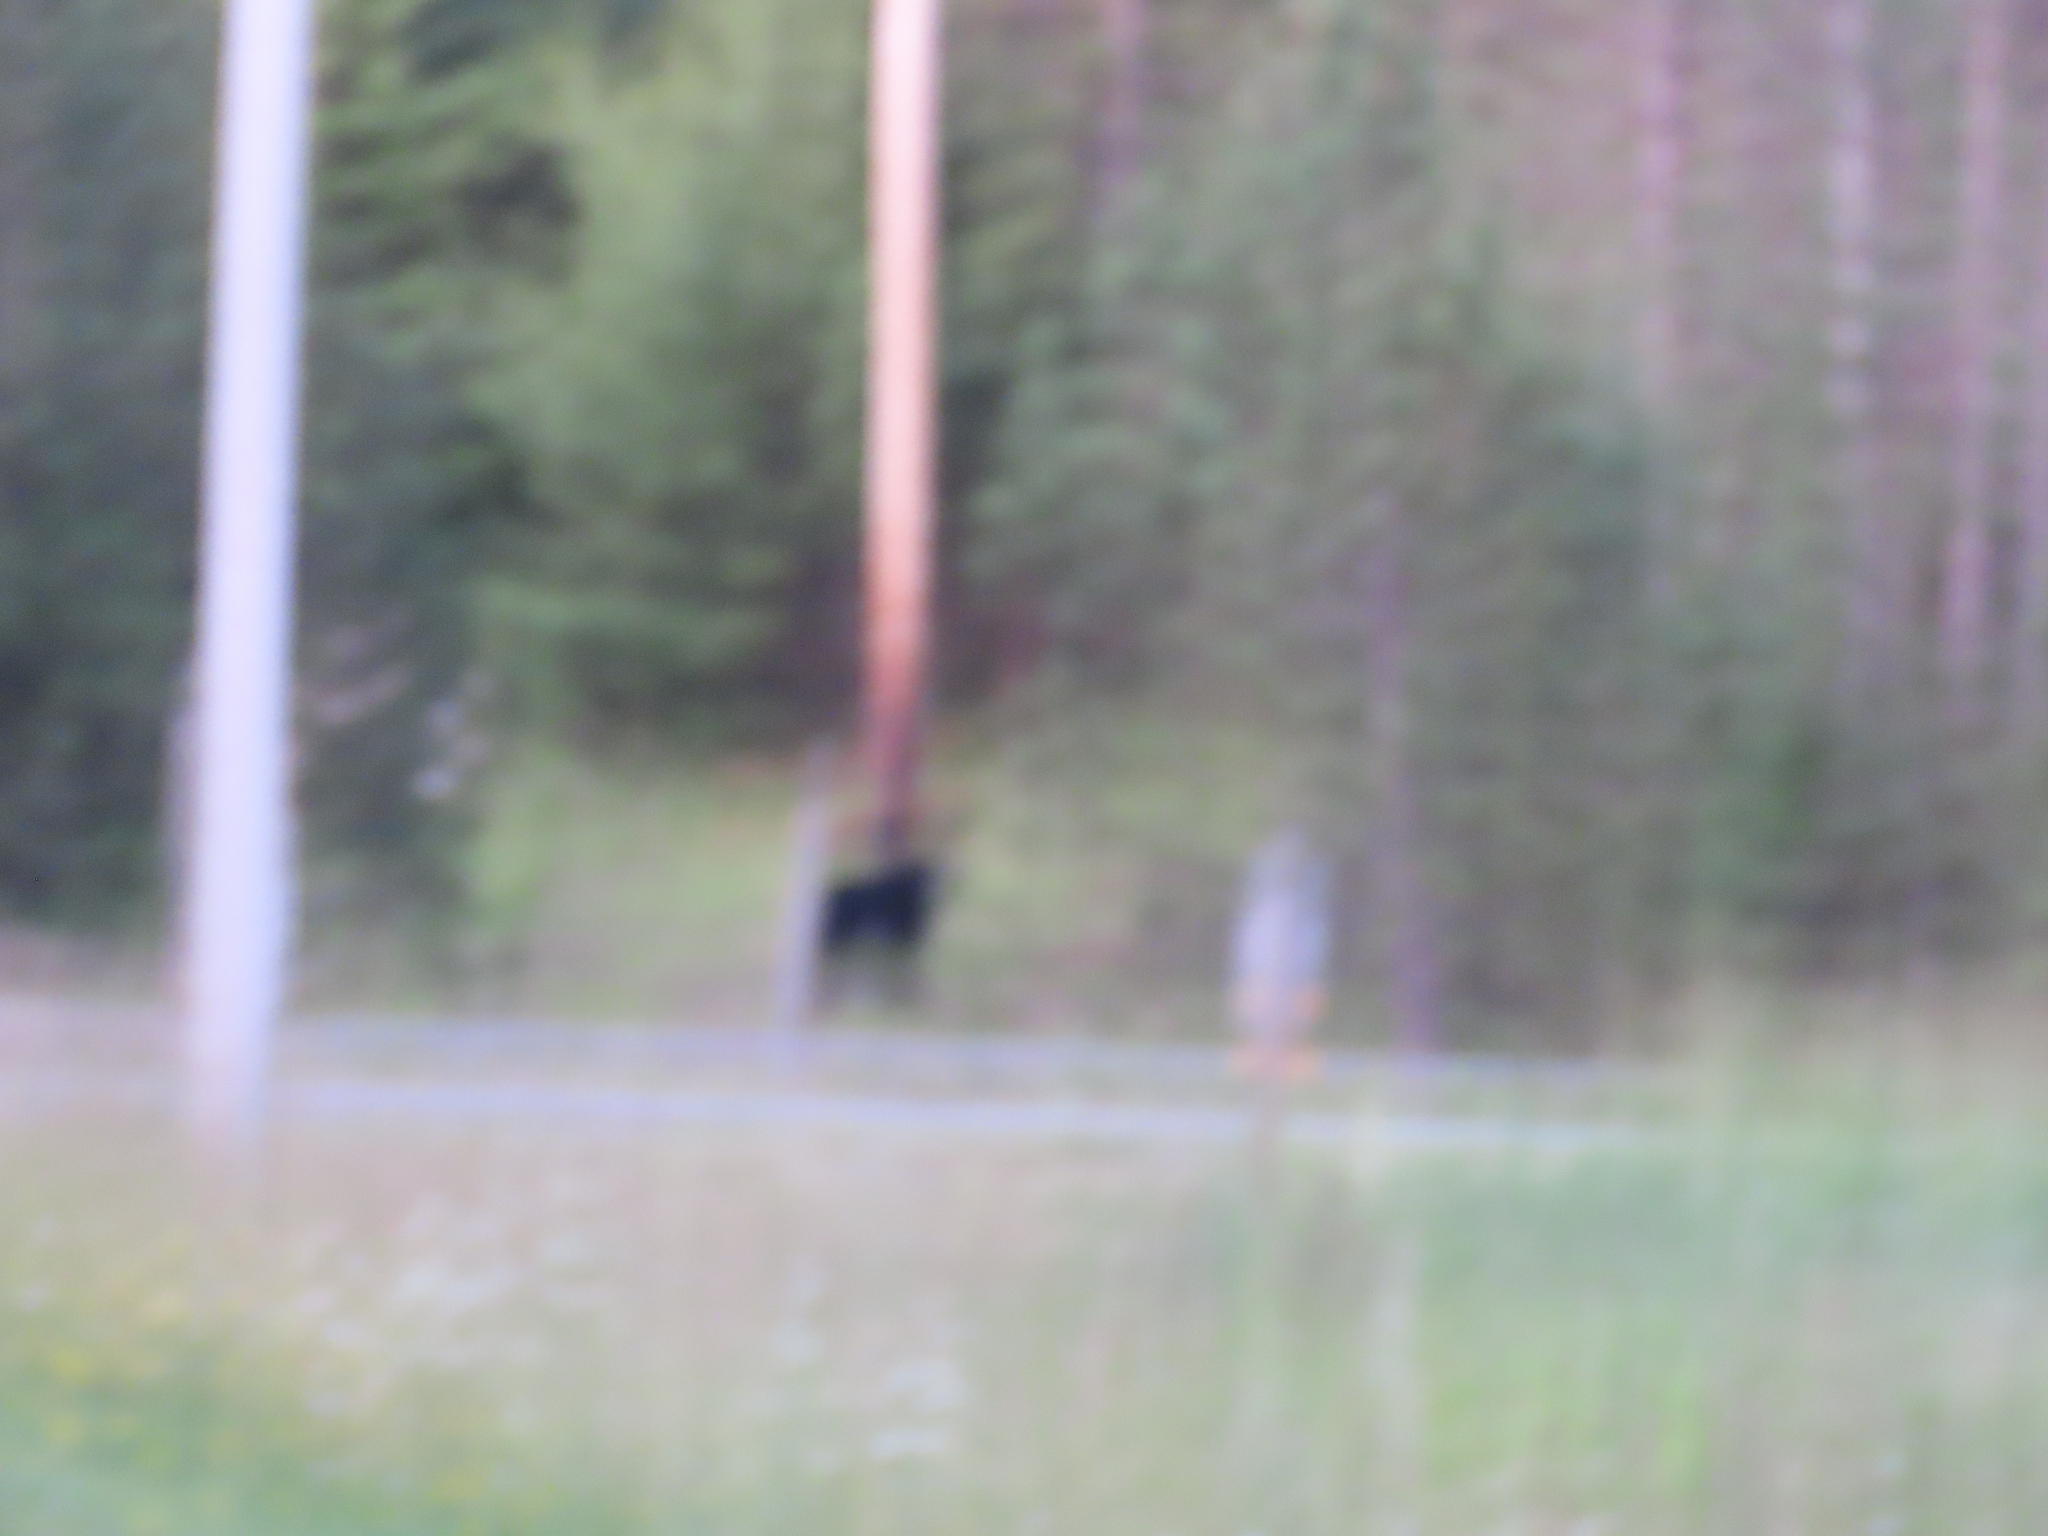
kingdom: Animalia
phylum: Chordata
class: Mammalia
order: Carnivora
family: Ursidae
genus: Ursus
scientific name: Ursus americanus
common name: American black bear
